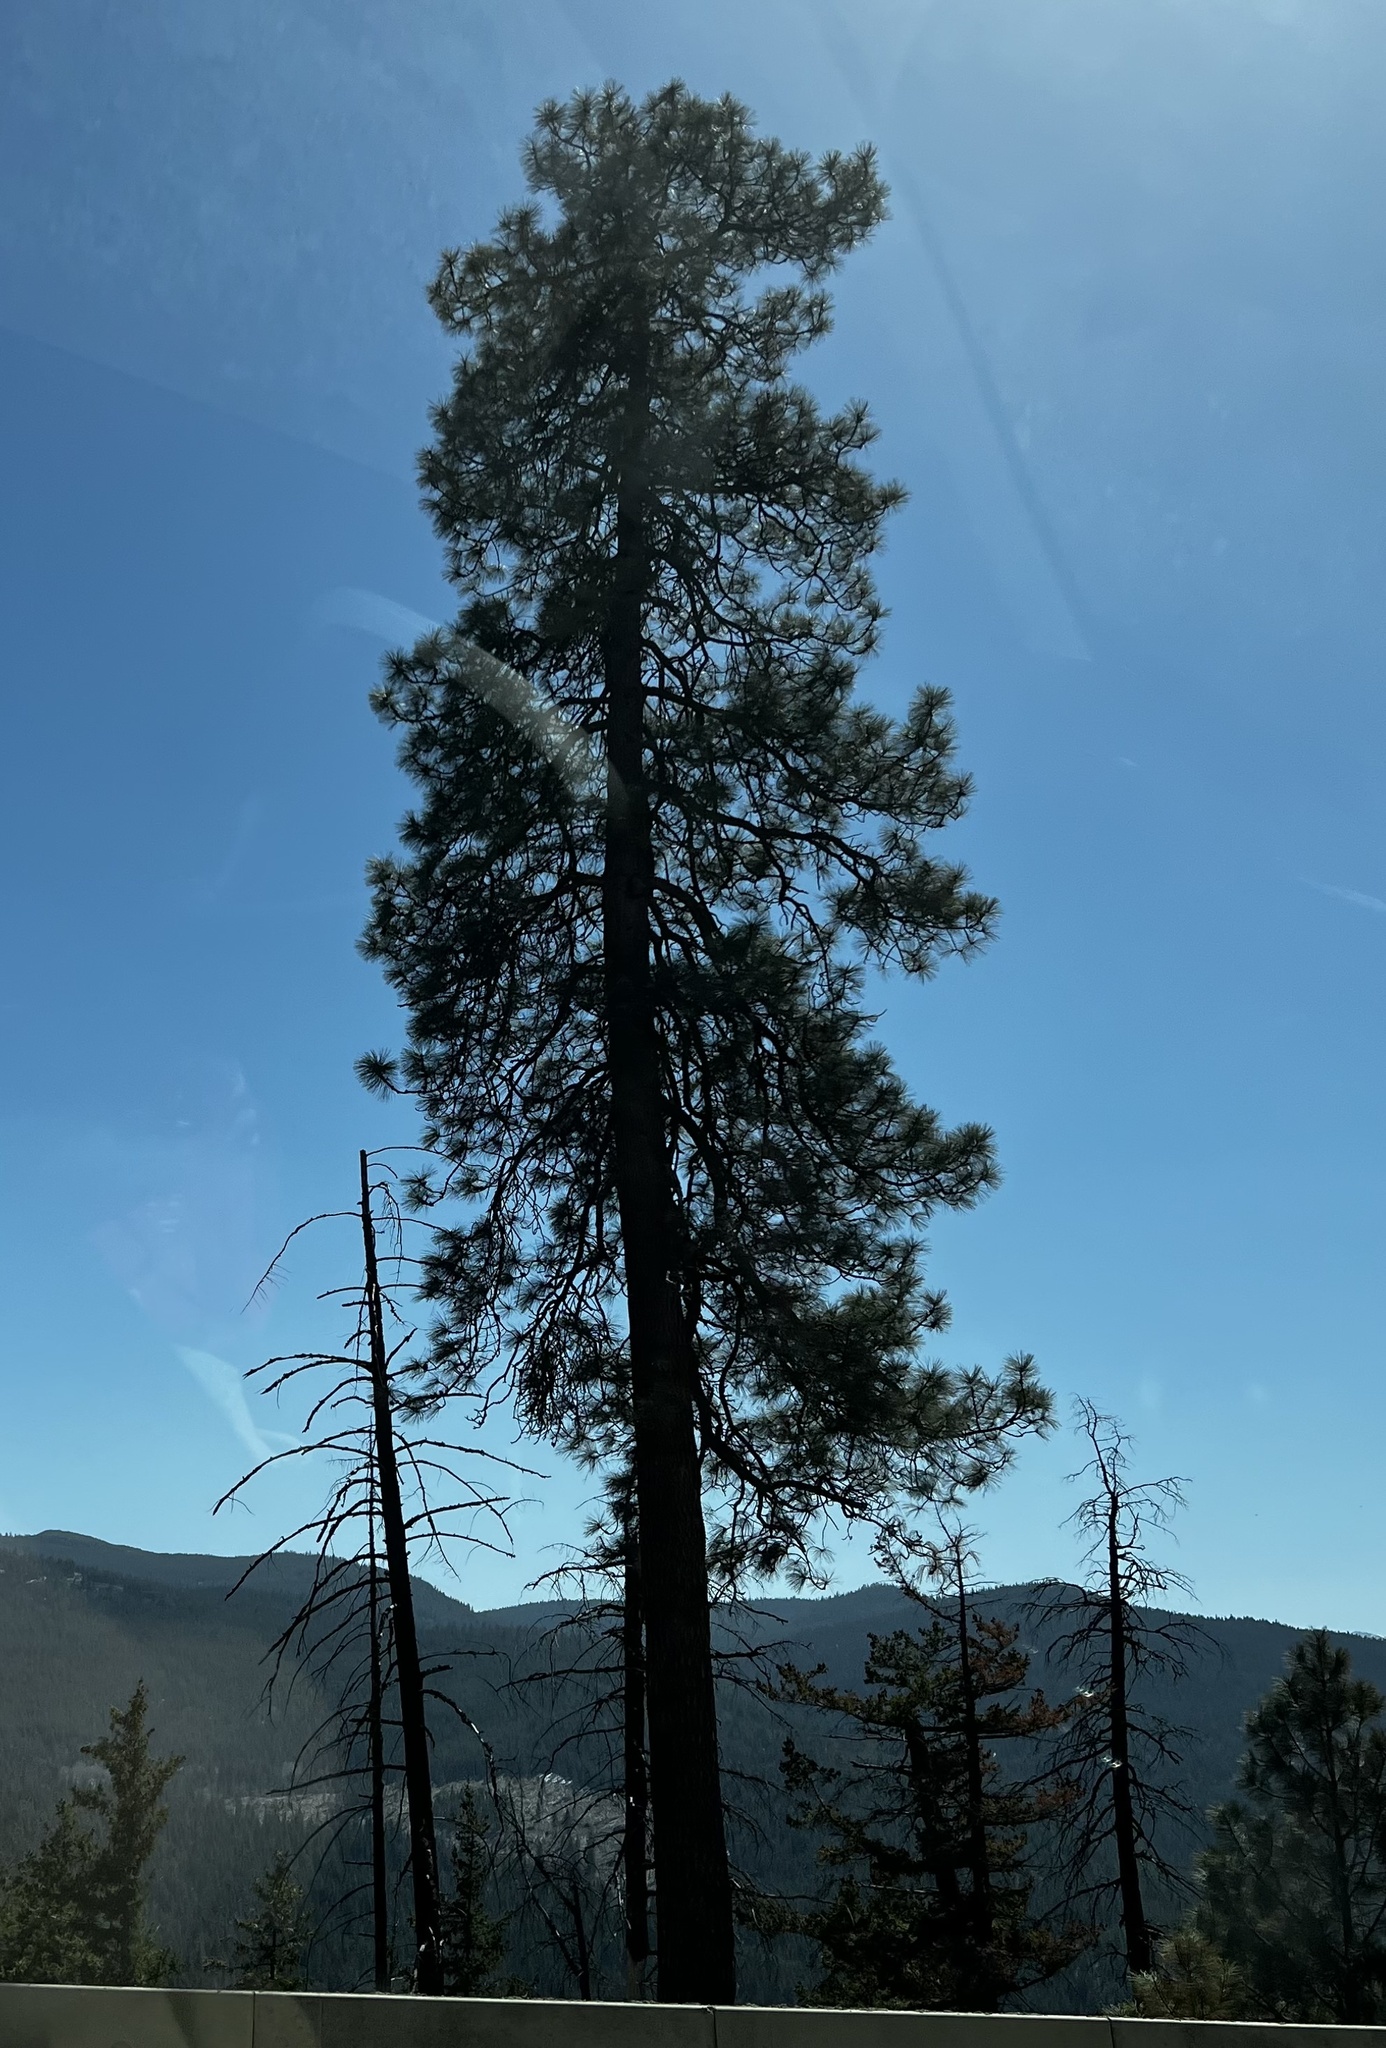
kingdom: Plantae
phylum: Tracheophyta
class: Pinopsida
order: Pinales
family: Pinaceae
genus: Pinus
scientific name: Pinus ponderosa
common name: Western yellow-pine
